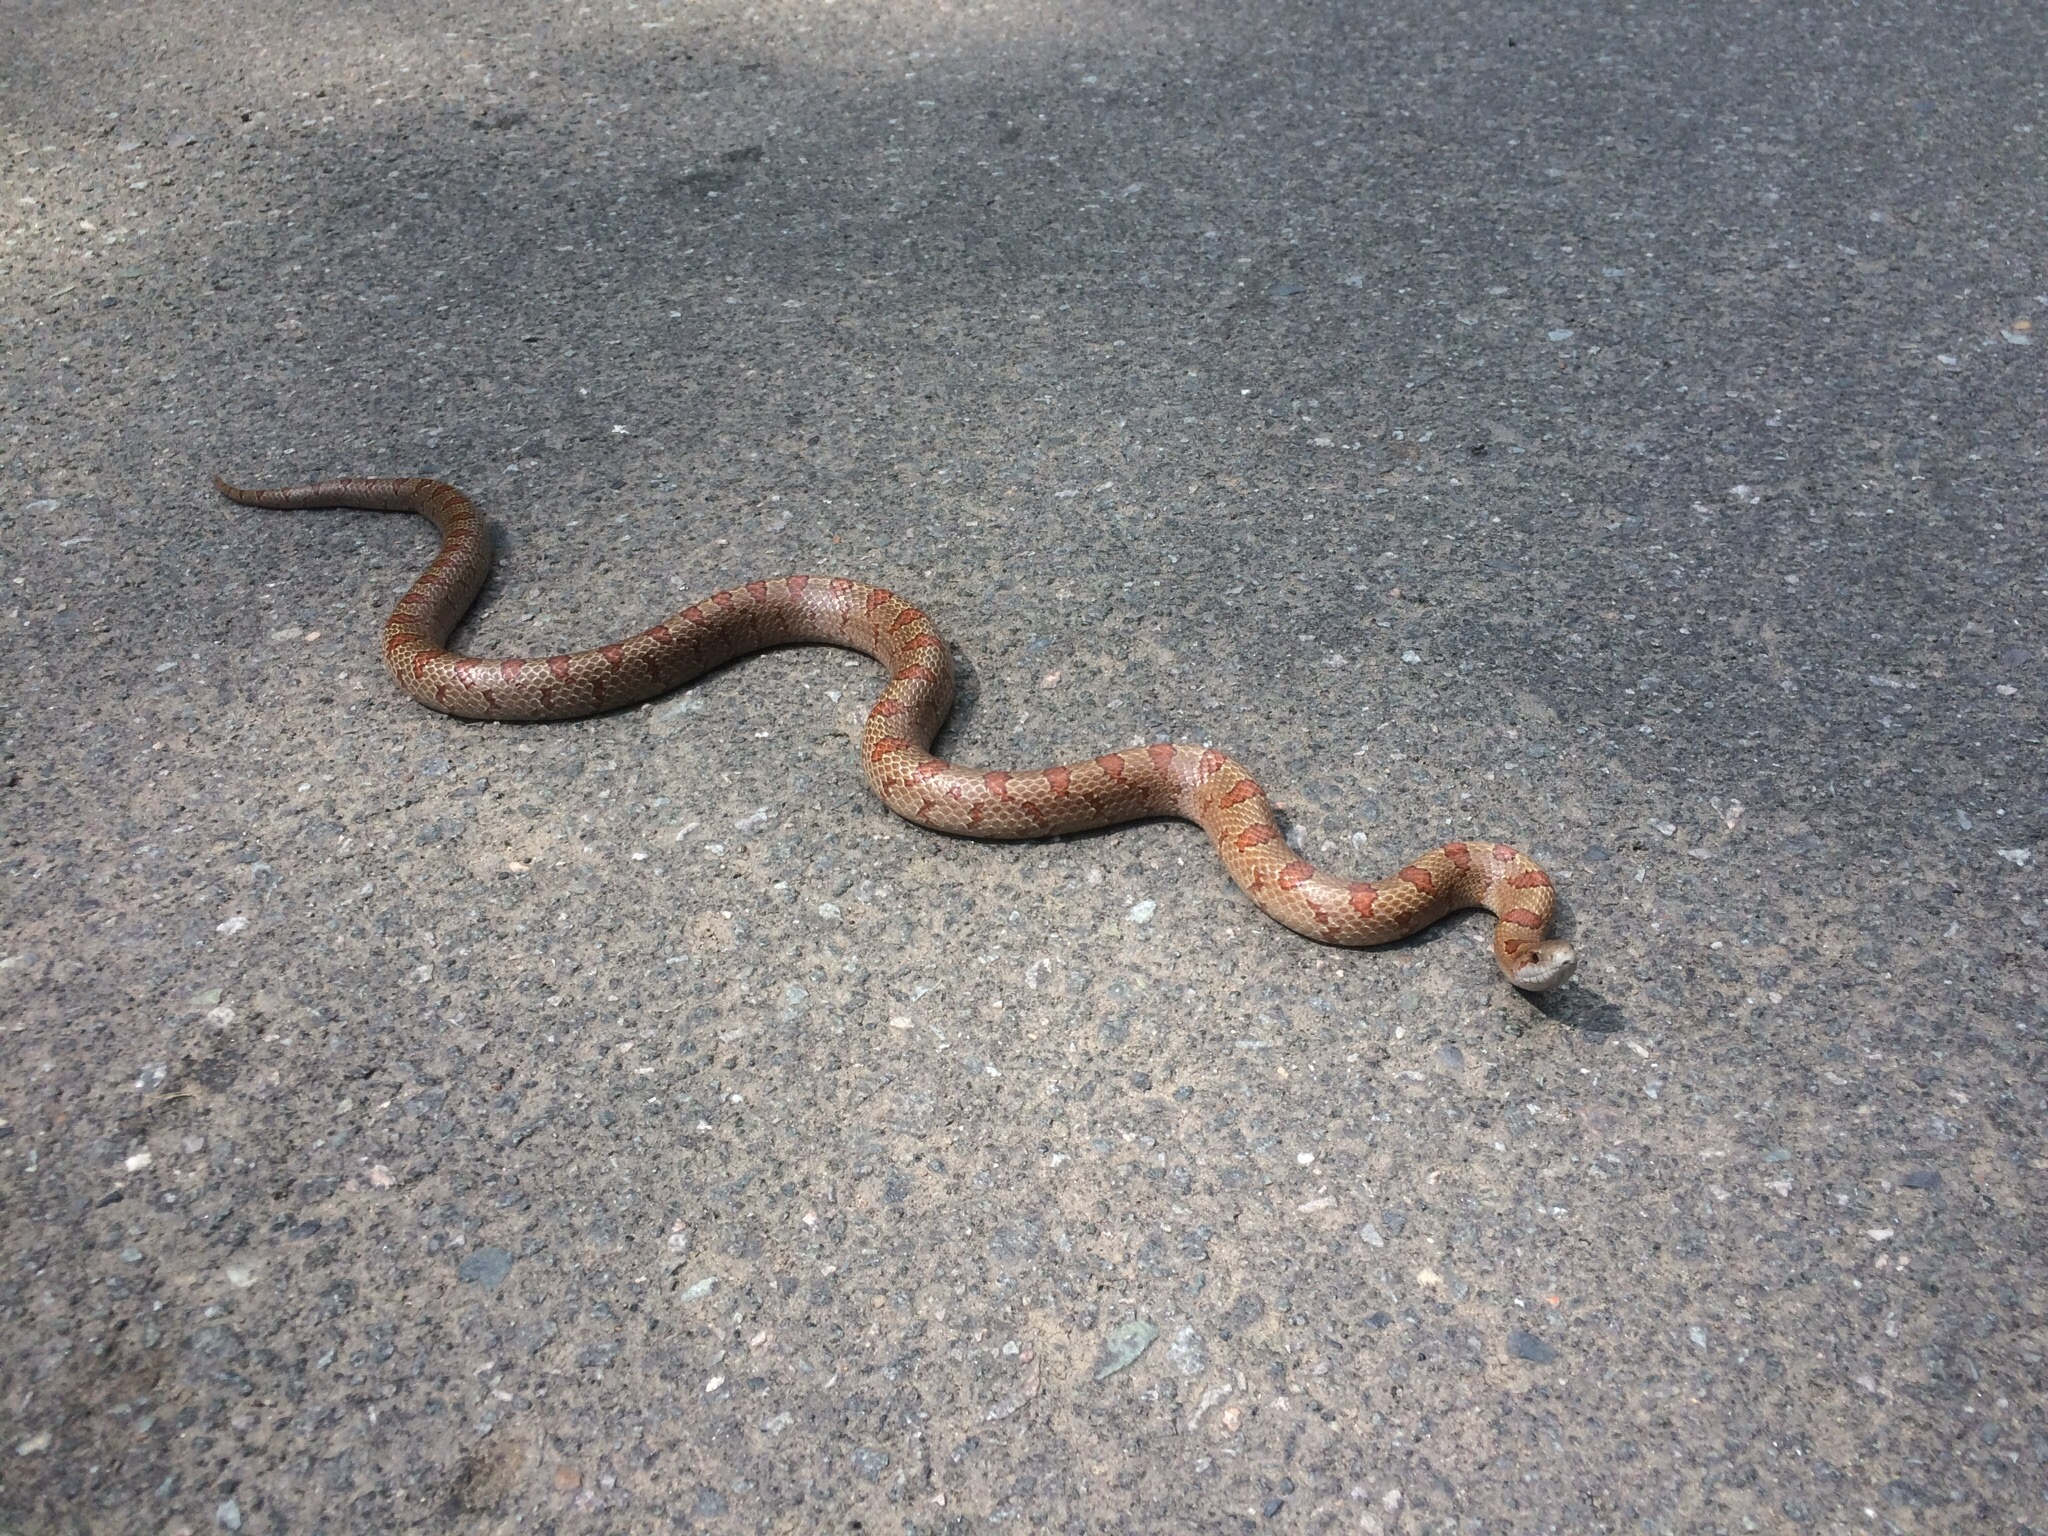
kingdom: Animalia
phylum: Chordata
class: Squamata
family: Colubridae
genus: Lampropeltis
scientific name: Lampropeltis rhombomaculata
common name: Mole kingsnake
